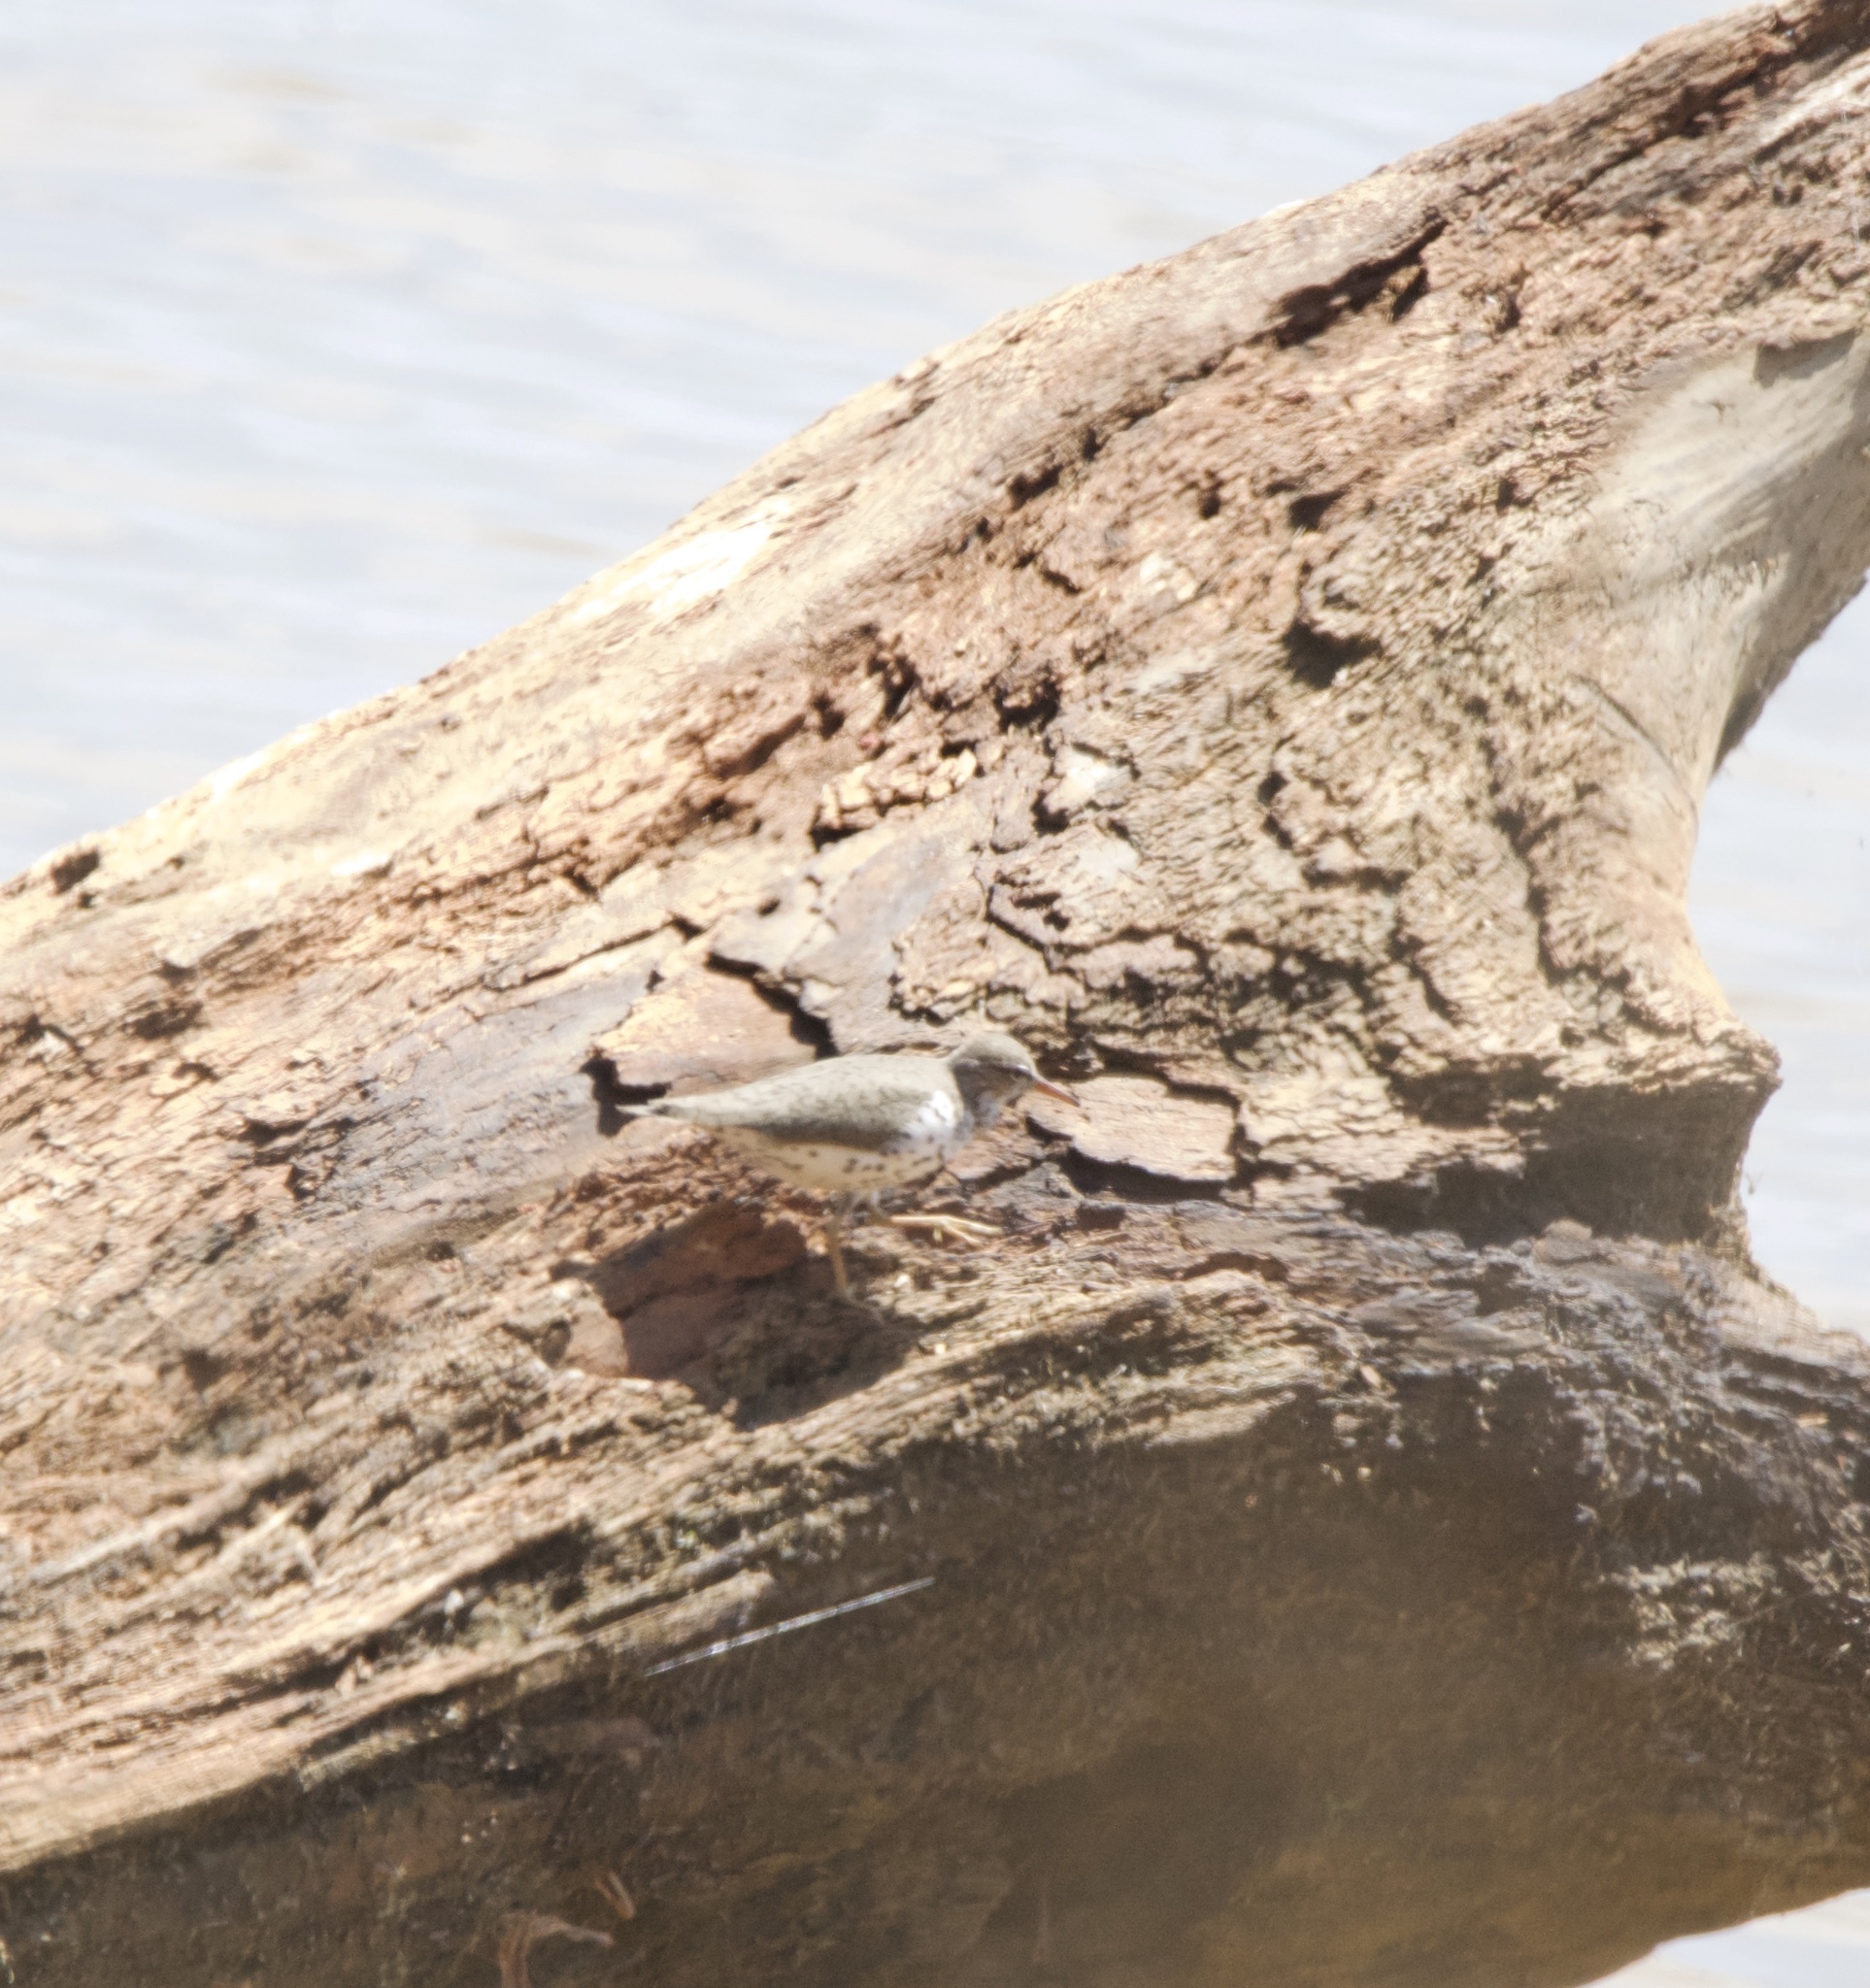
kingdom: Animalia
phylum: Chordata
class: Aves
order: Charadriiformes
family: Scolopacidae
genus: Actitis
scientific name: Actitis macularius
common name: Spotted sandpiper
